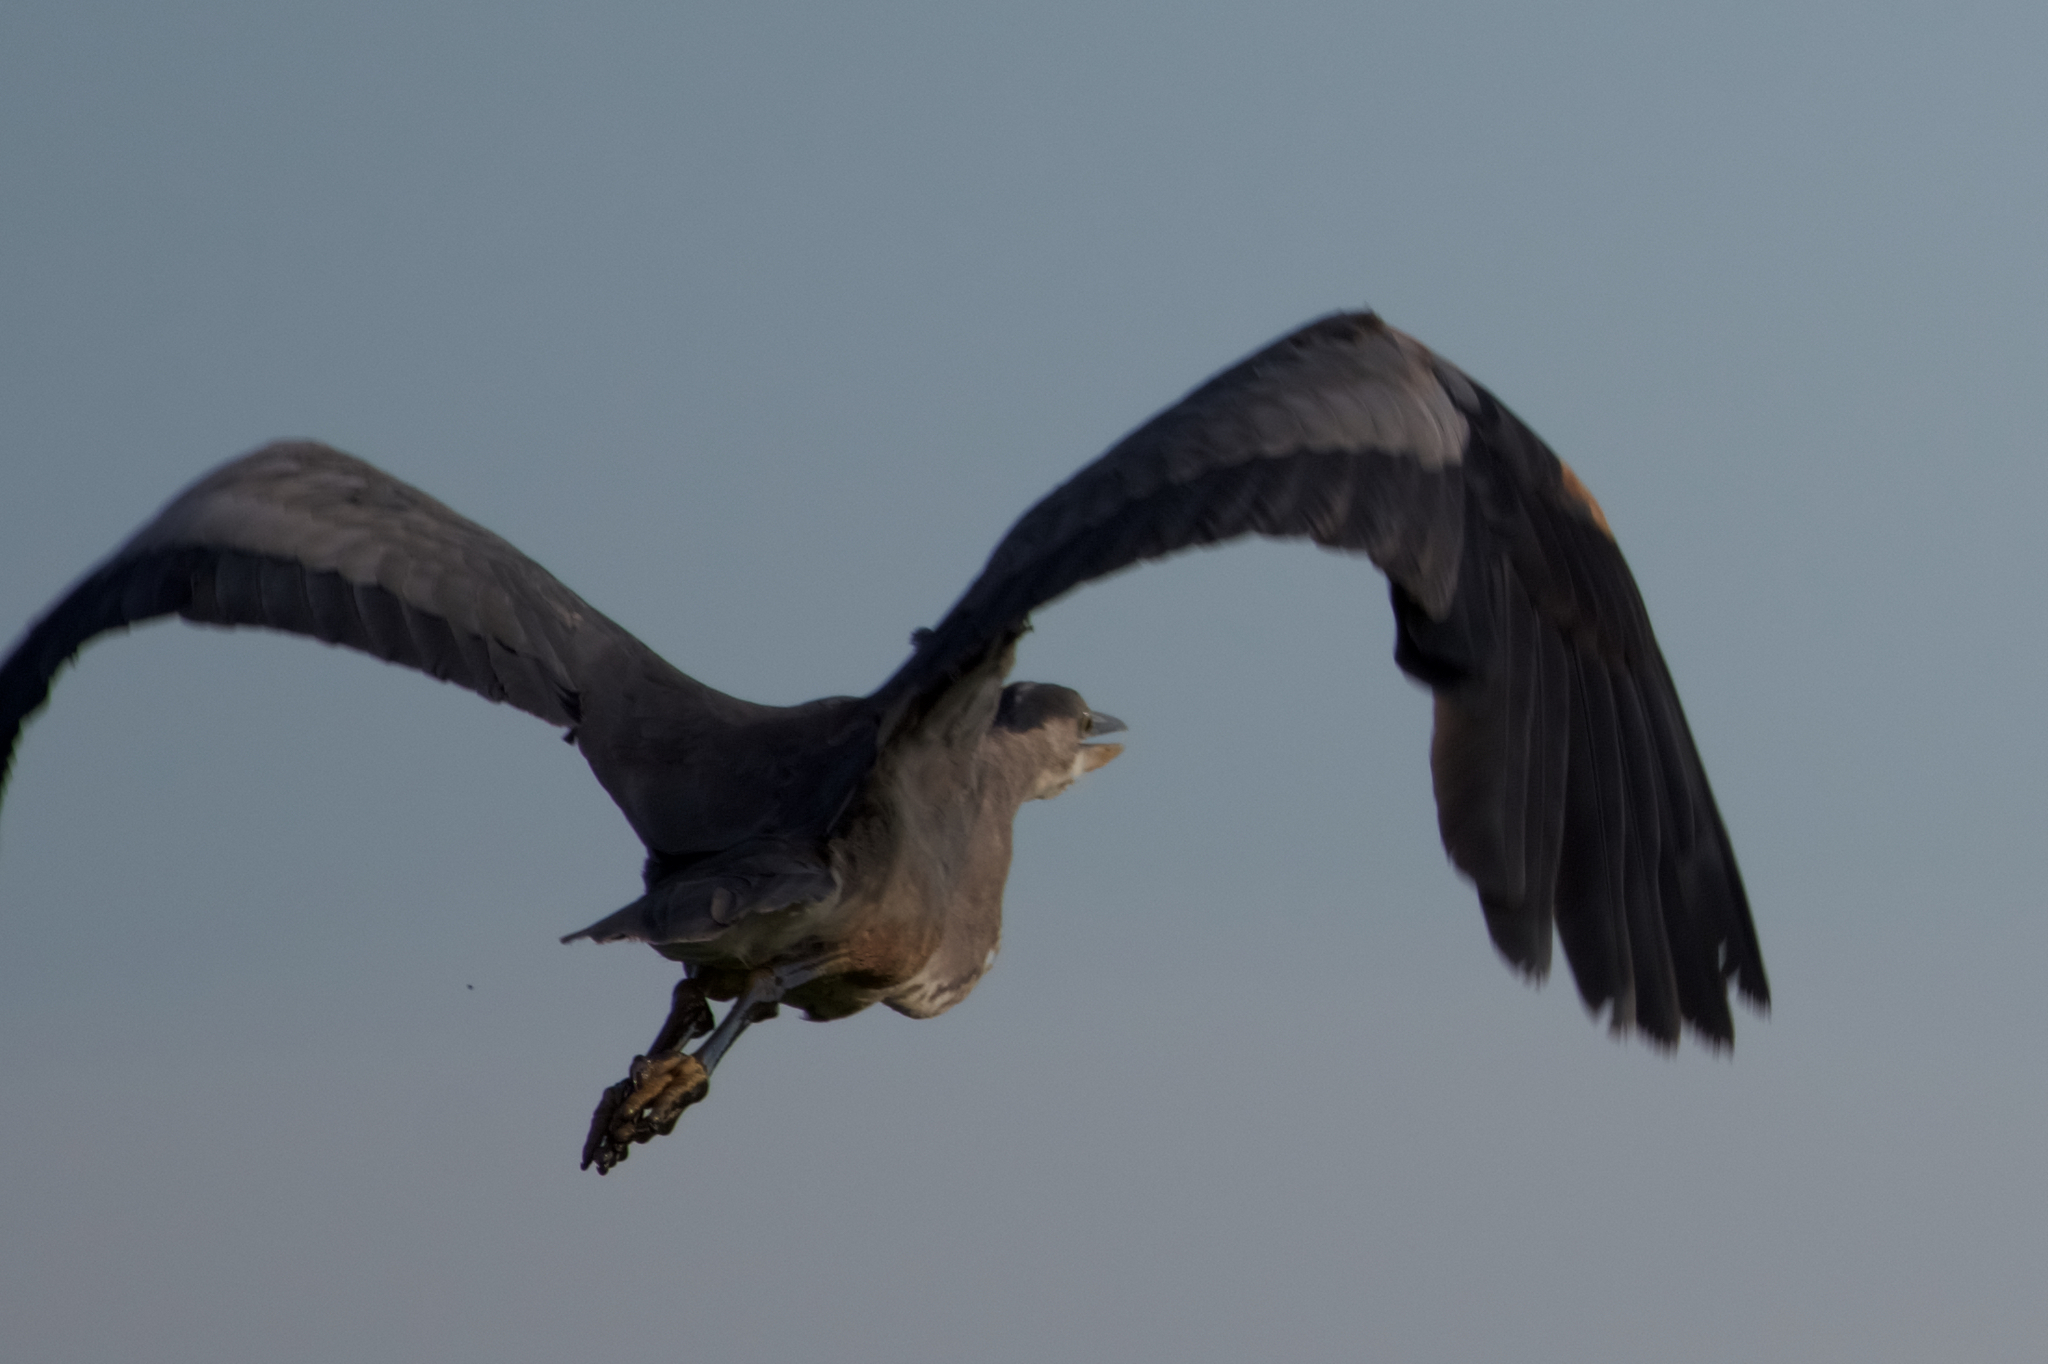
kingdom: Animalia
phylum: Chordata
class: Aves
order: Pelecaniformes
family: Ardeidae
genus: Ardea
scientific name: Ardea herodias
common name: Great blue heron
